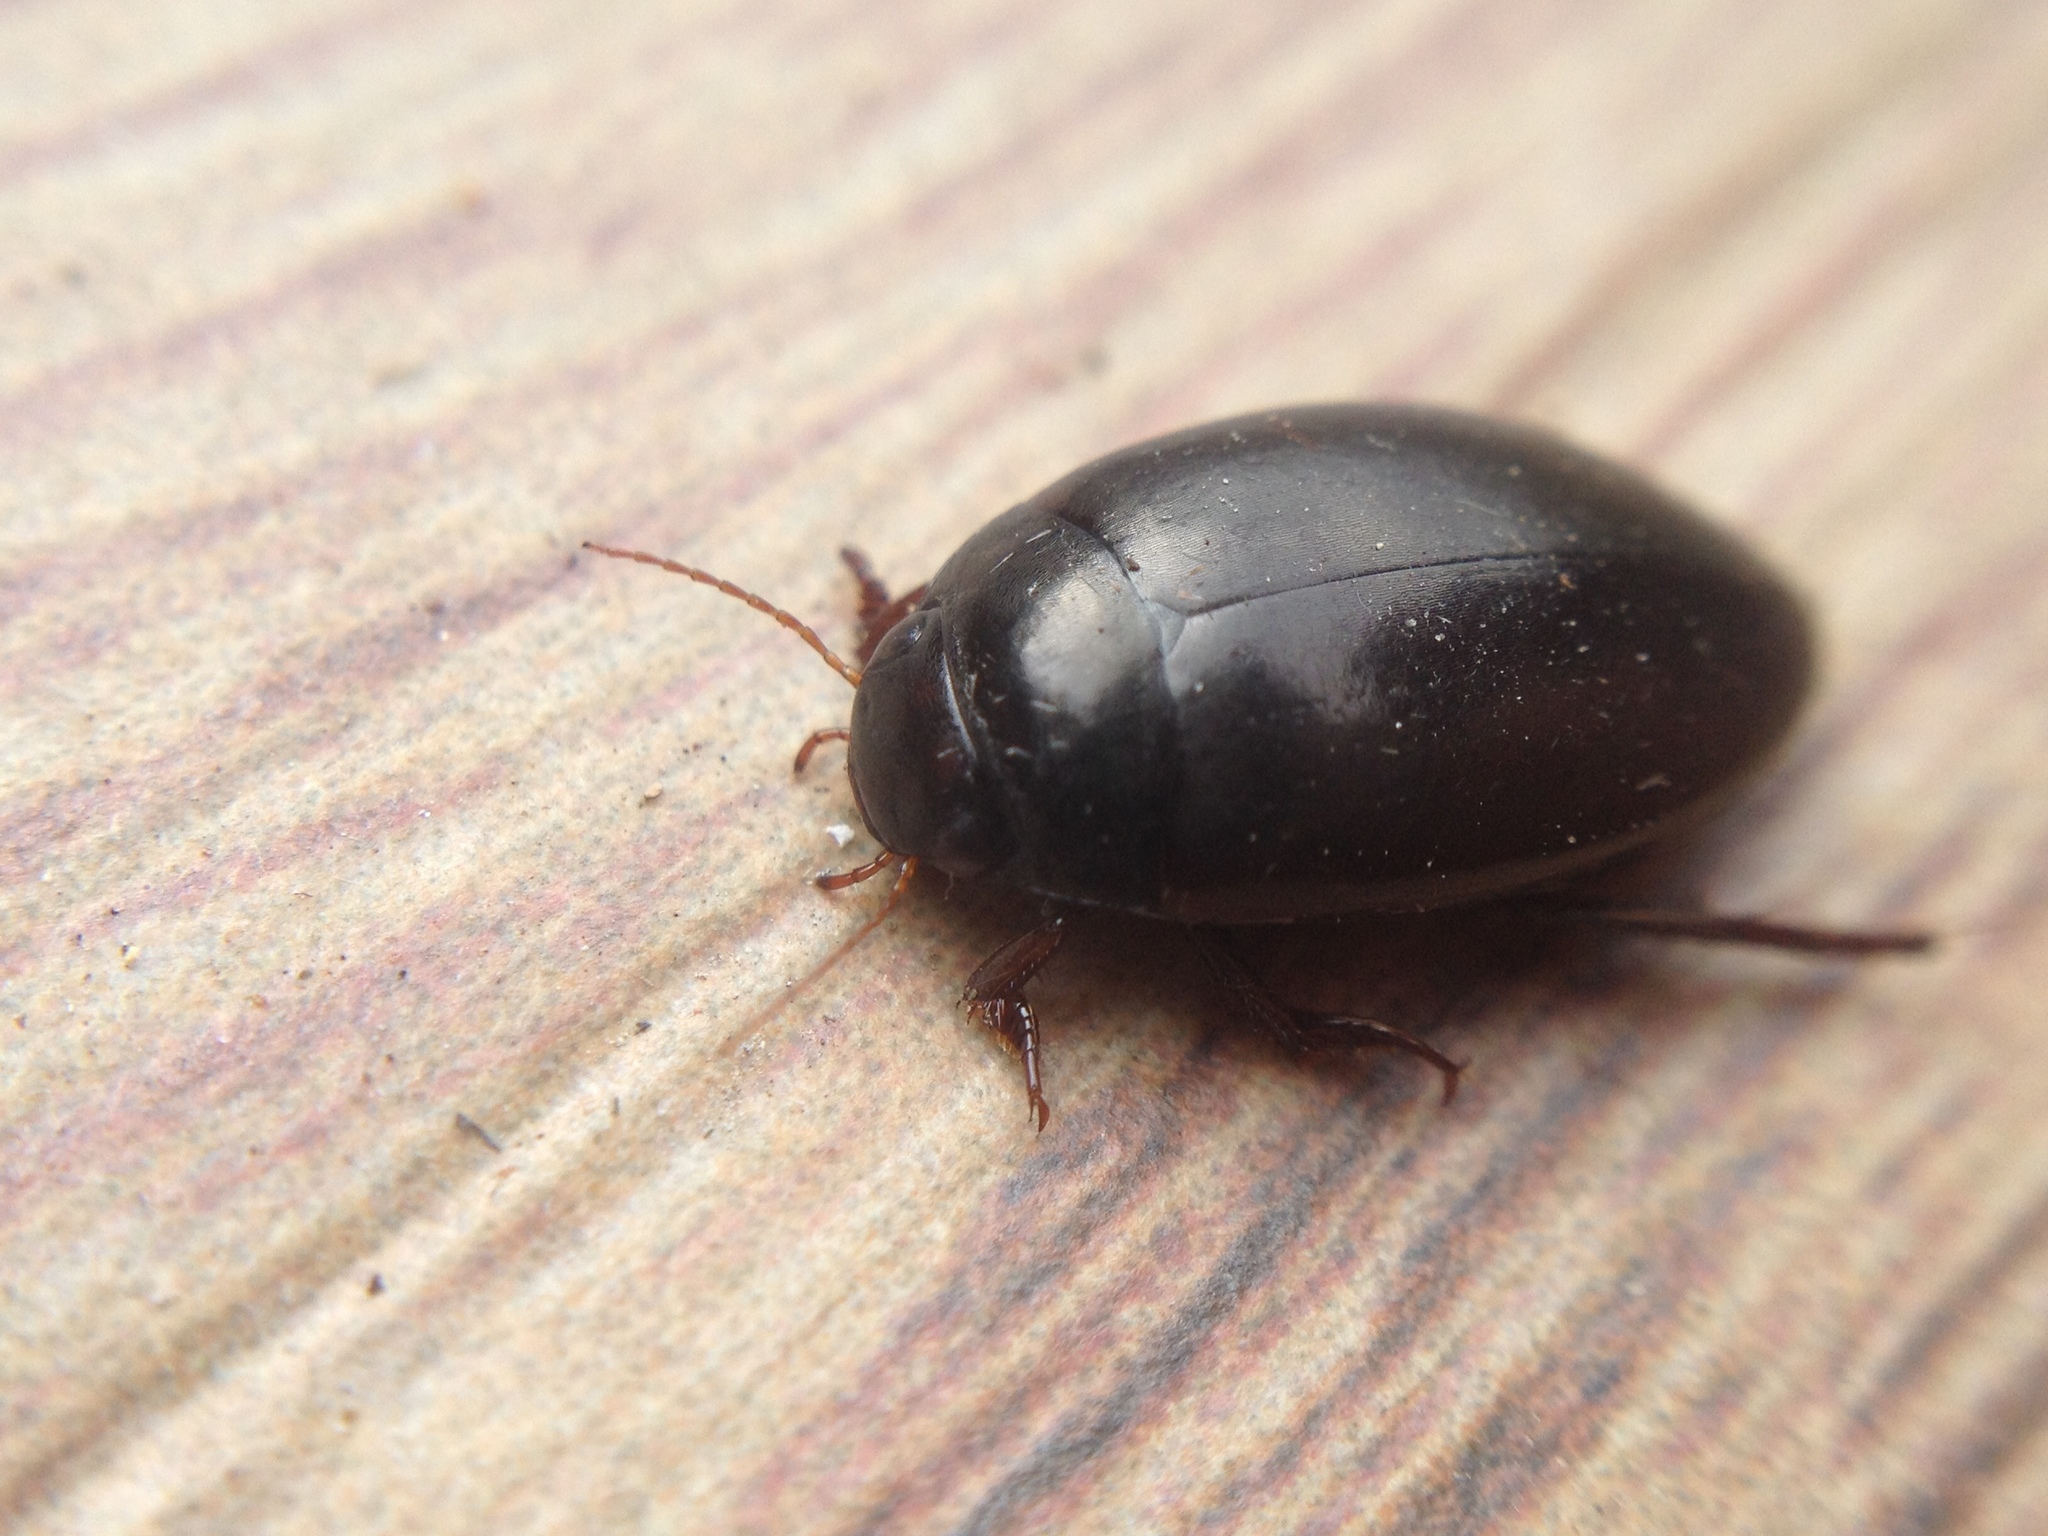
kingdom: Animalia
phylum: Arthropoda
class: Insecta
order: Coleoptera
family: Dytiscidae
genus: Agabus
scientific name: Agabus bipustulatus
